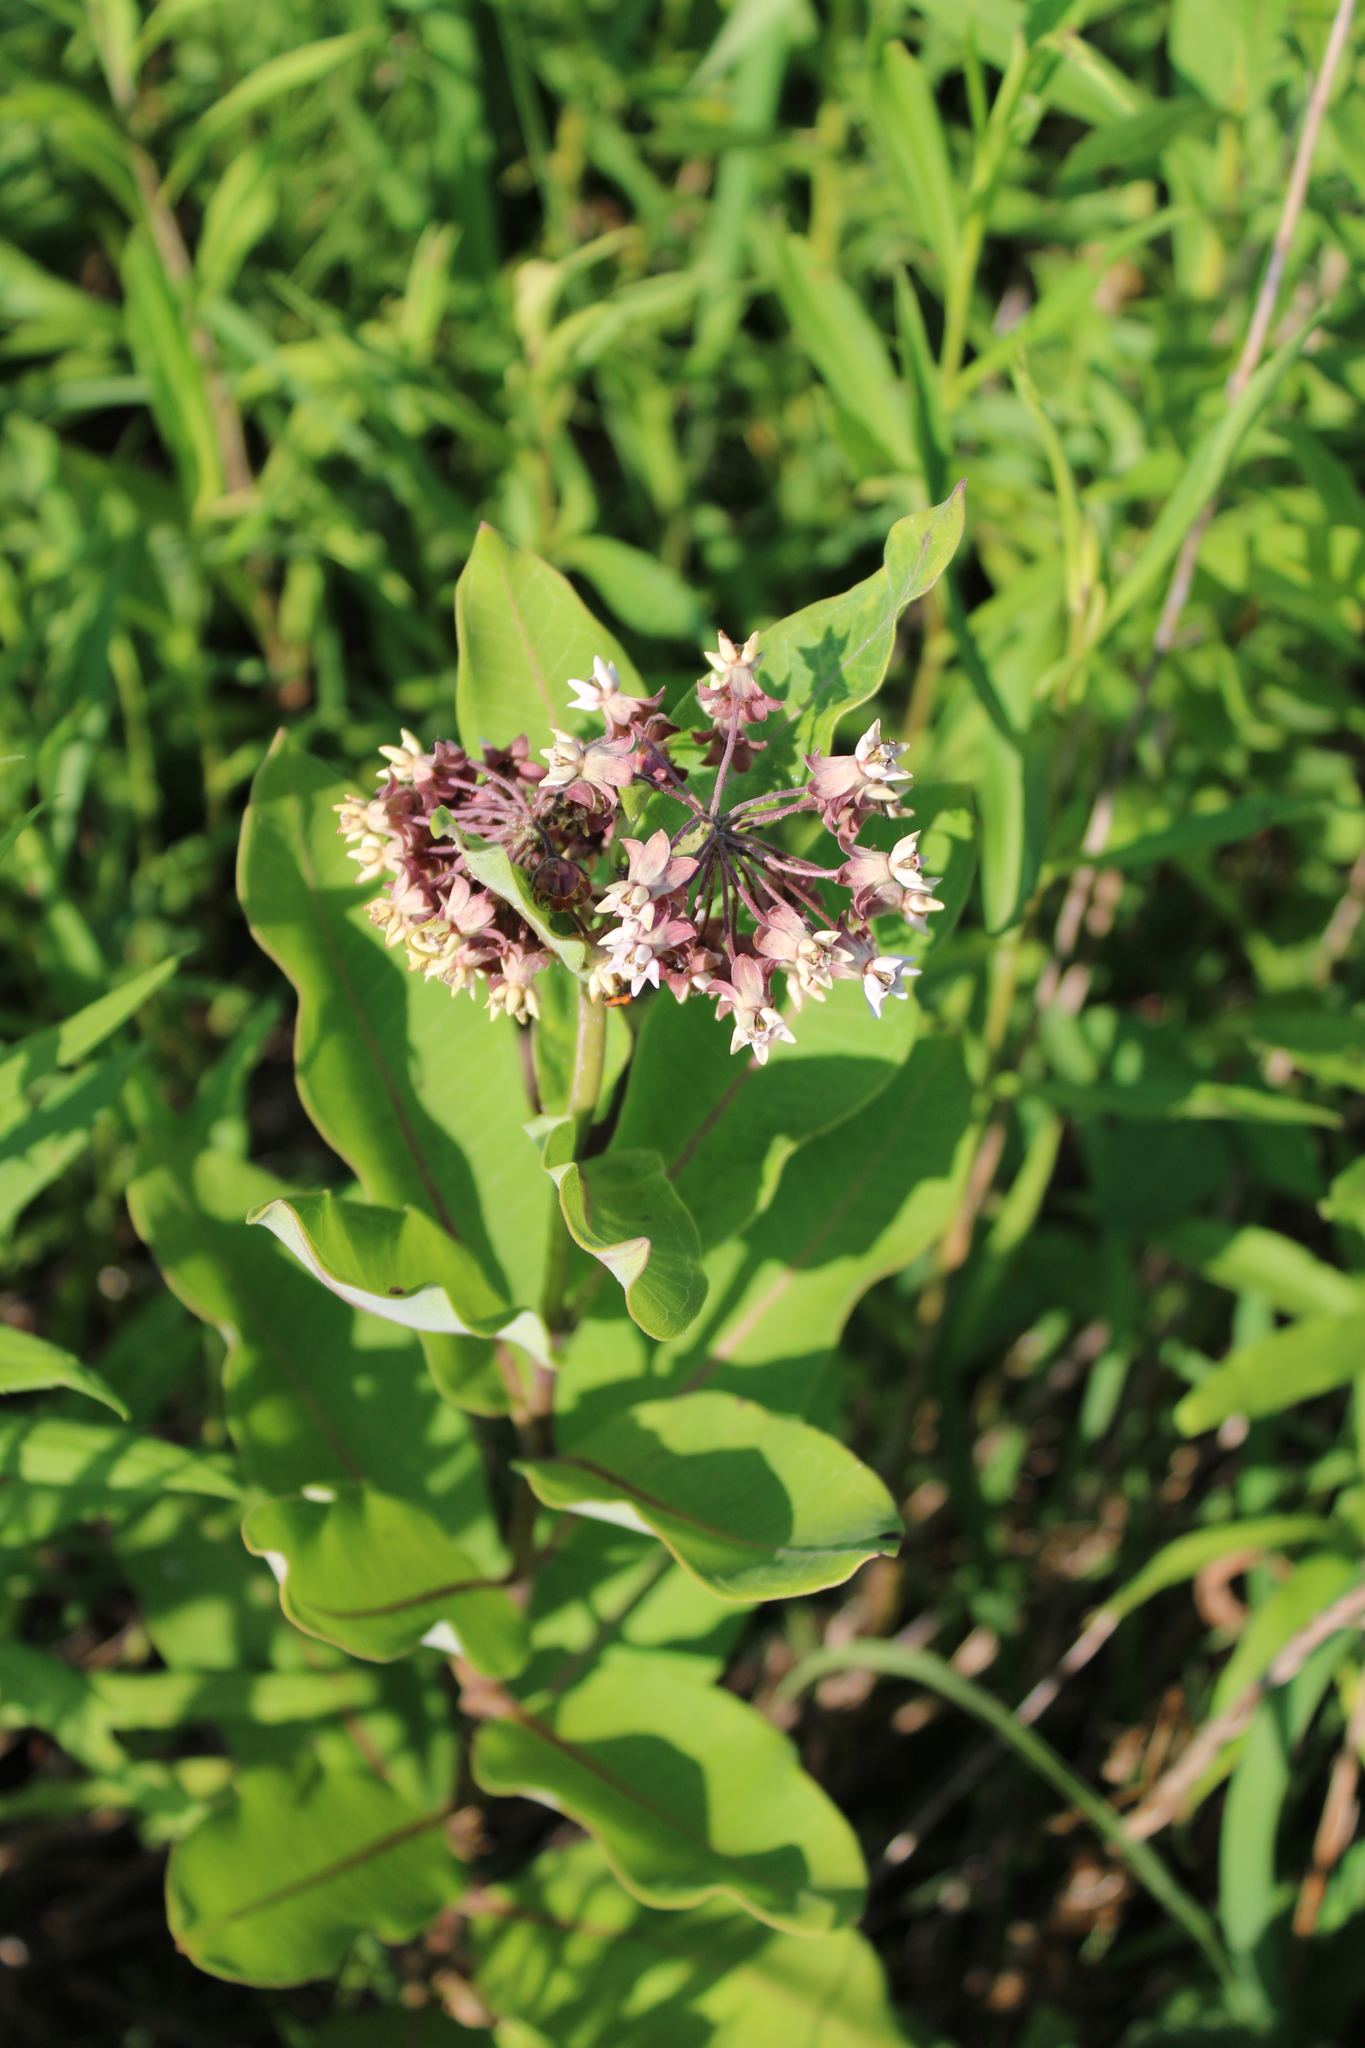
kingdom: Plantae
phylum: Tracheophyta
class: Magnoliopsida
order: Gentianales
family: Apocynaceae
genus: Asclepias
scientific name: Asclepias syriaca
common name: Common milkweed
